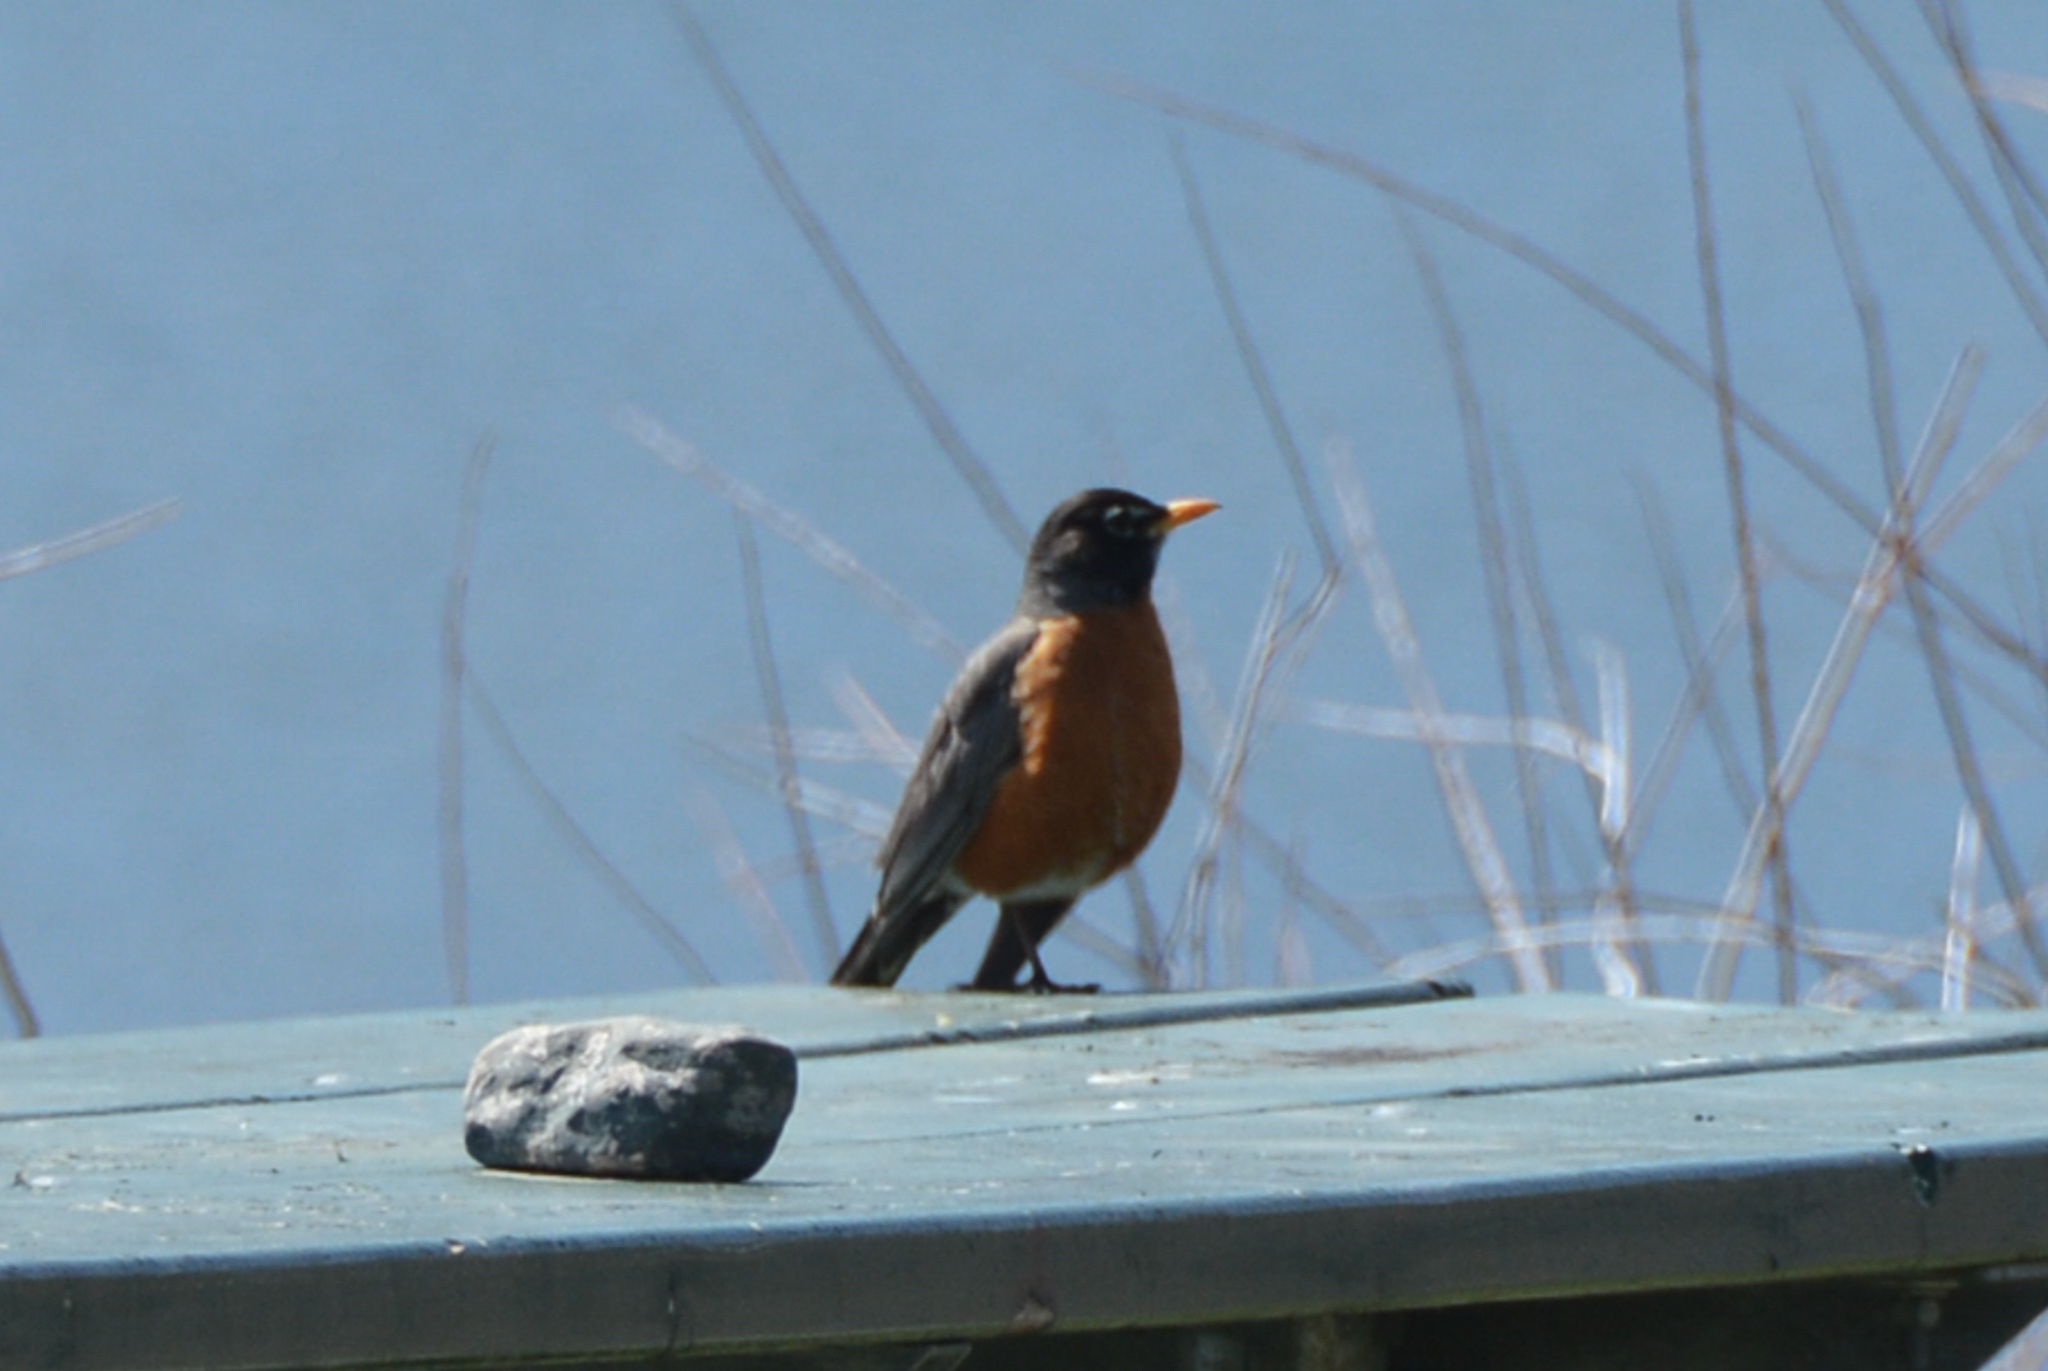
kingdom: Animalia
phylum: Chordata
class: Aves
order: Passeriformes
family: Turdidae
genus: Turdus
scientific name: Turdus migratorius
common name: American robin
